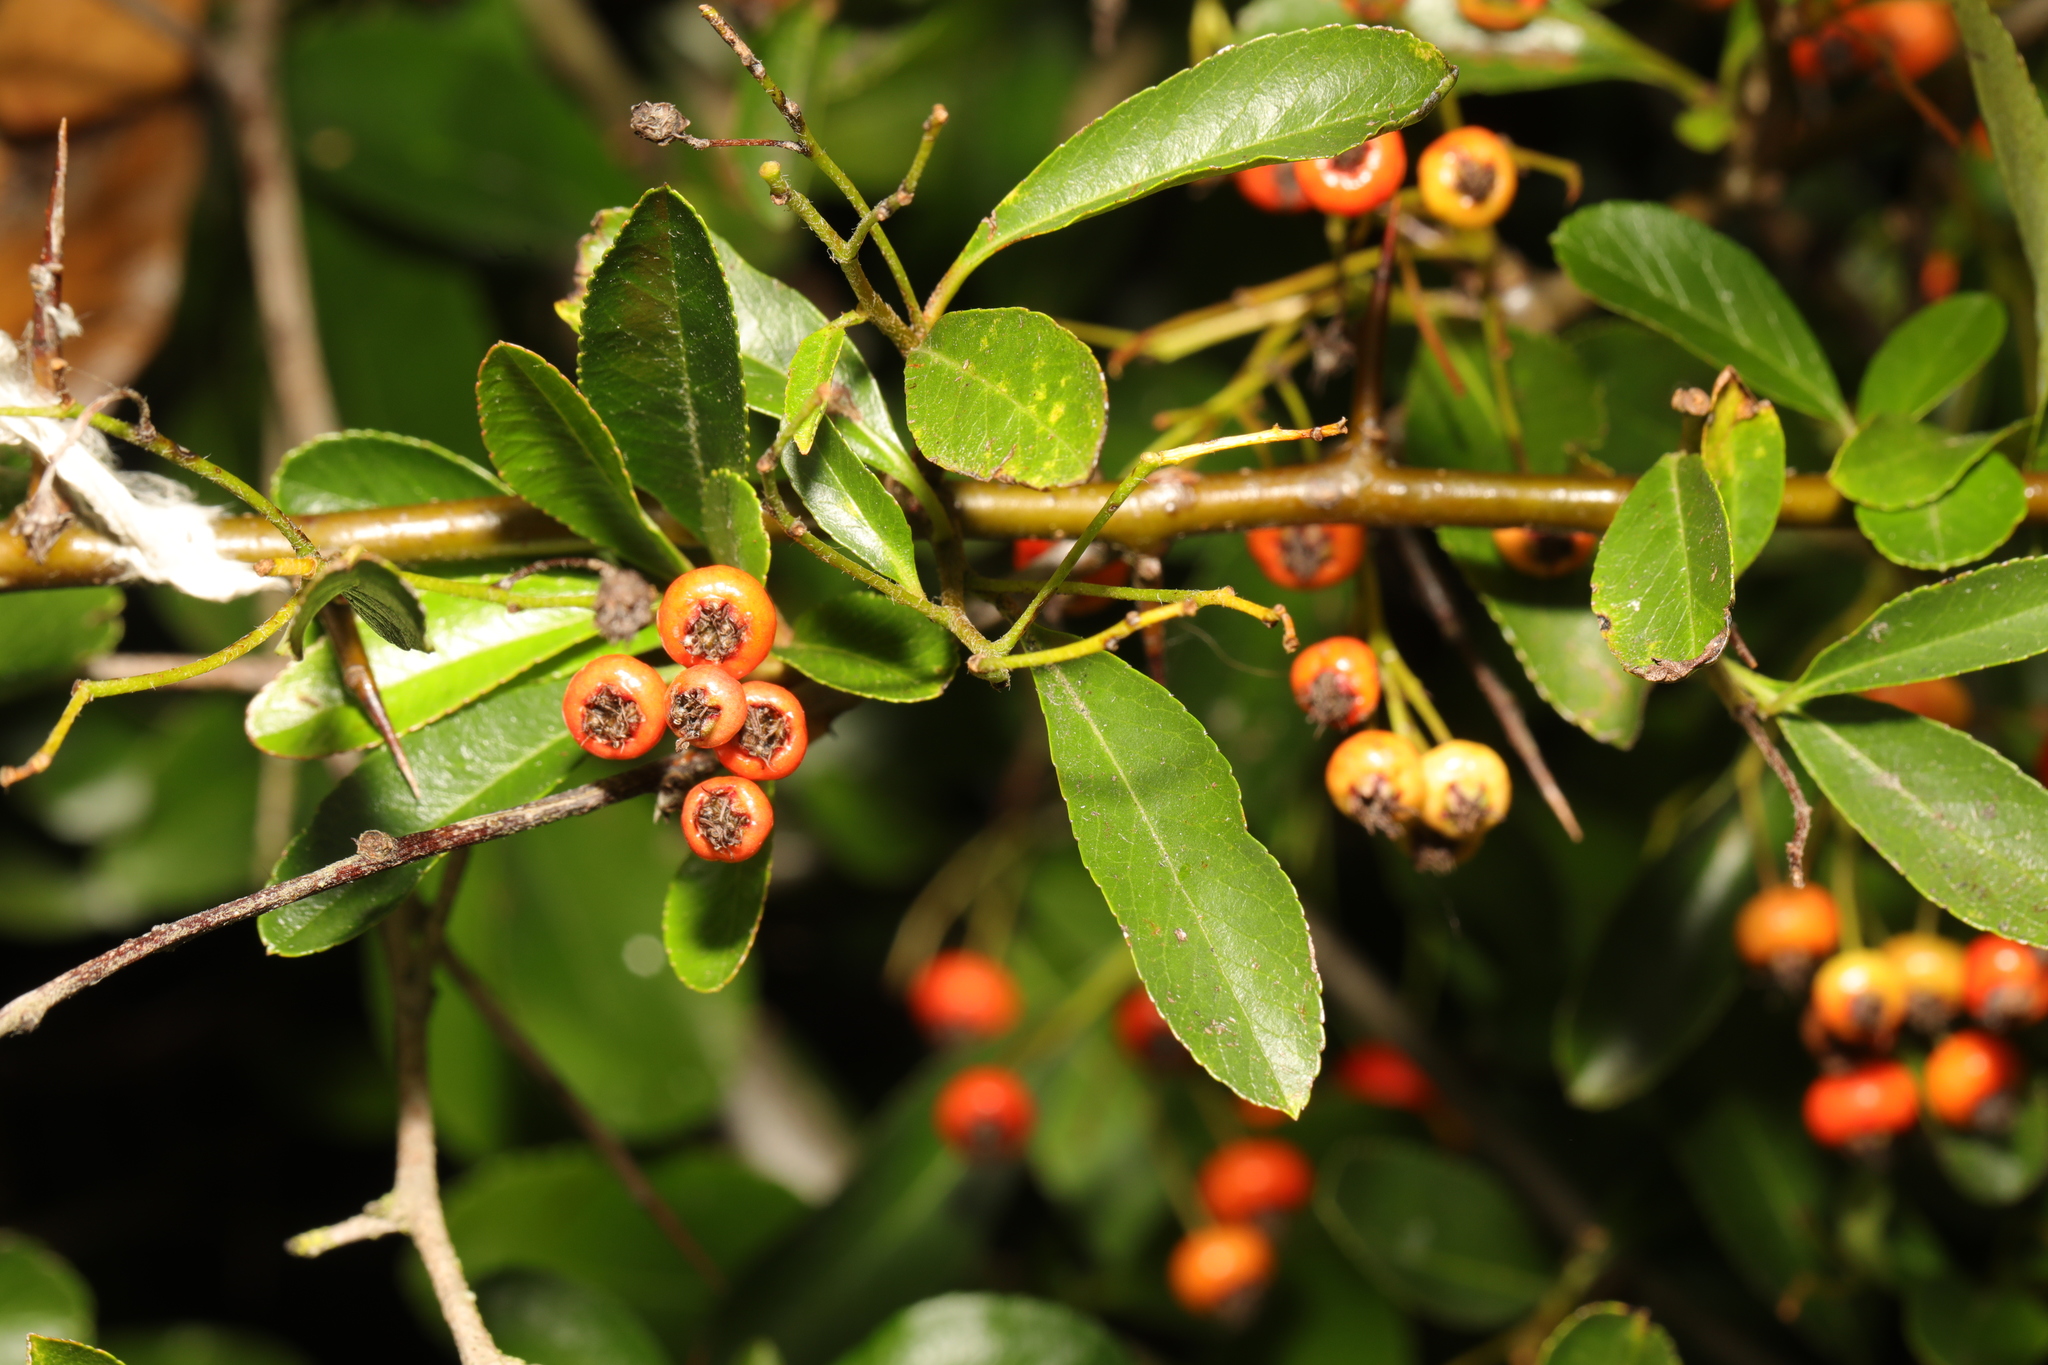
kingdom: Plantae
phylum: Tracheophyta
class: Magnoliopsida
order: Rosales
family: Rosaceae
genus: Pyracantha
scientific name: Pyracantha coccinea
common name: Firethorn
